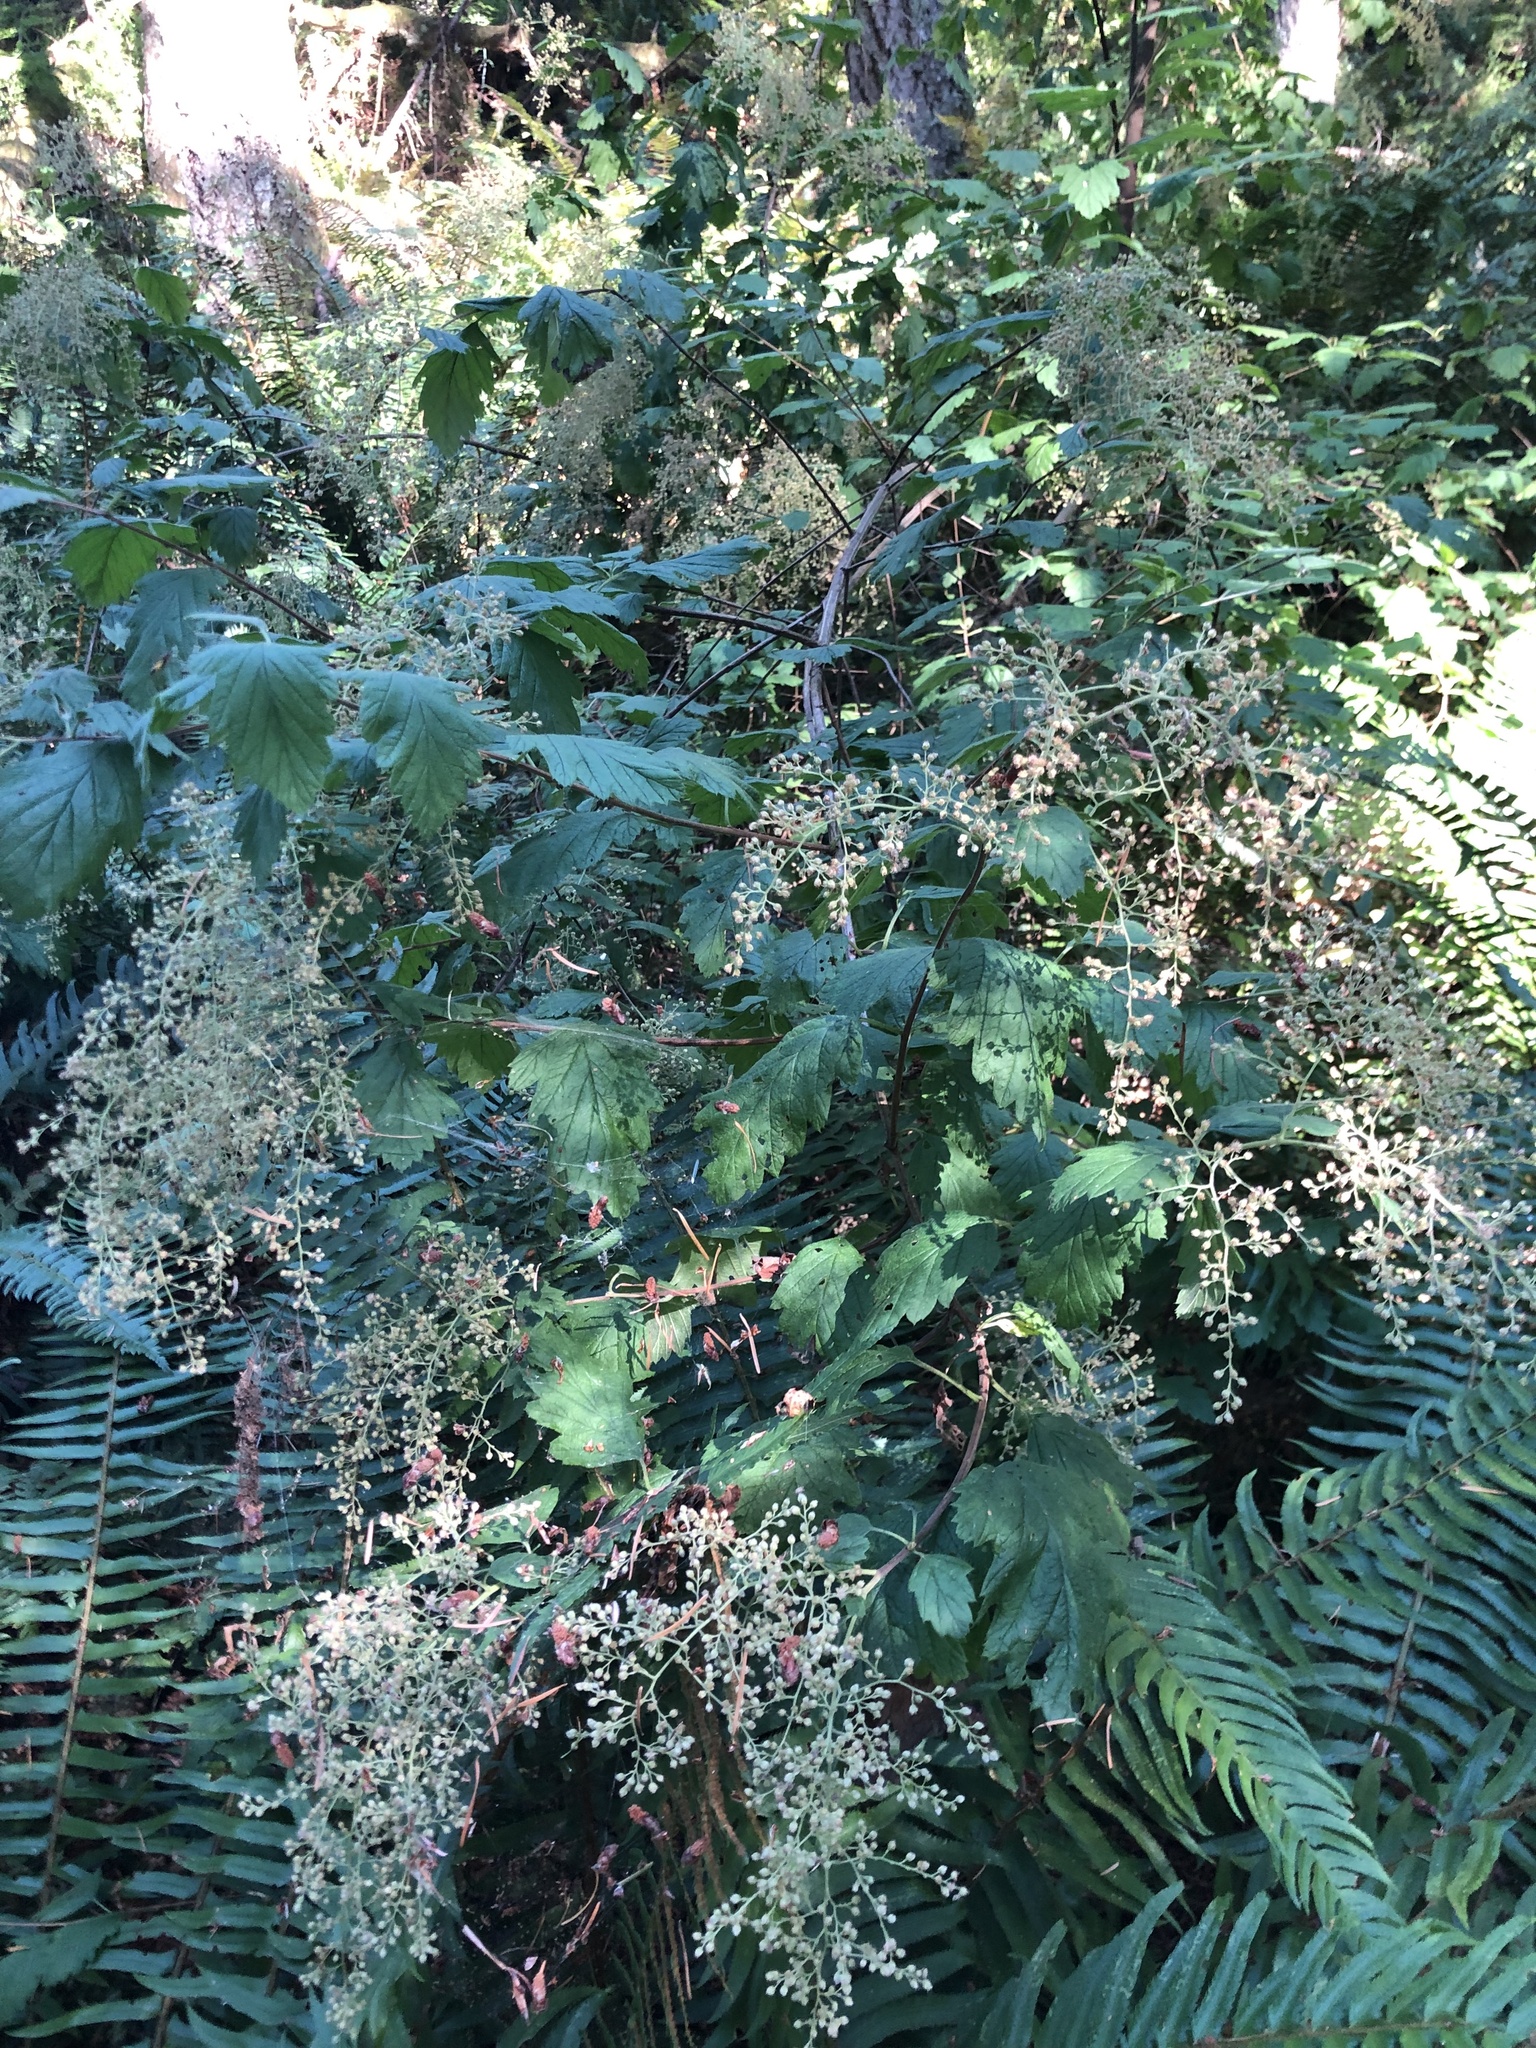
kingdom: Plantae
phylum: Tracheophyta
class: Magnoliopsida
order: Rosales
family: Rosaceae
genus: Holodiscus
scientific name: Holodiscus discolor
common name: Oceanspray
